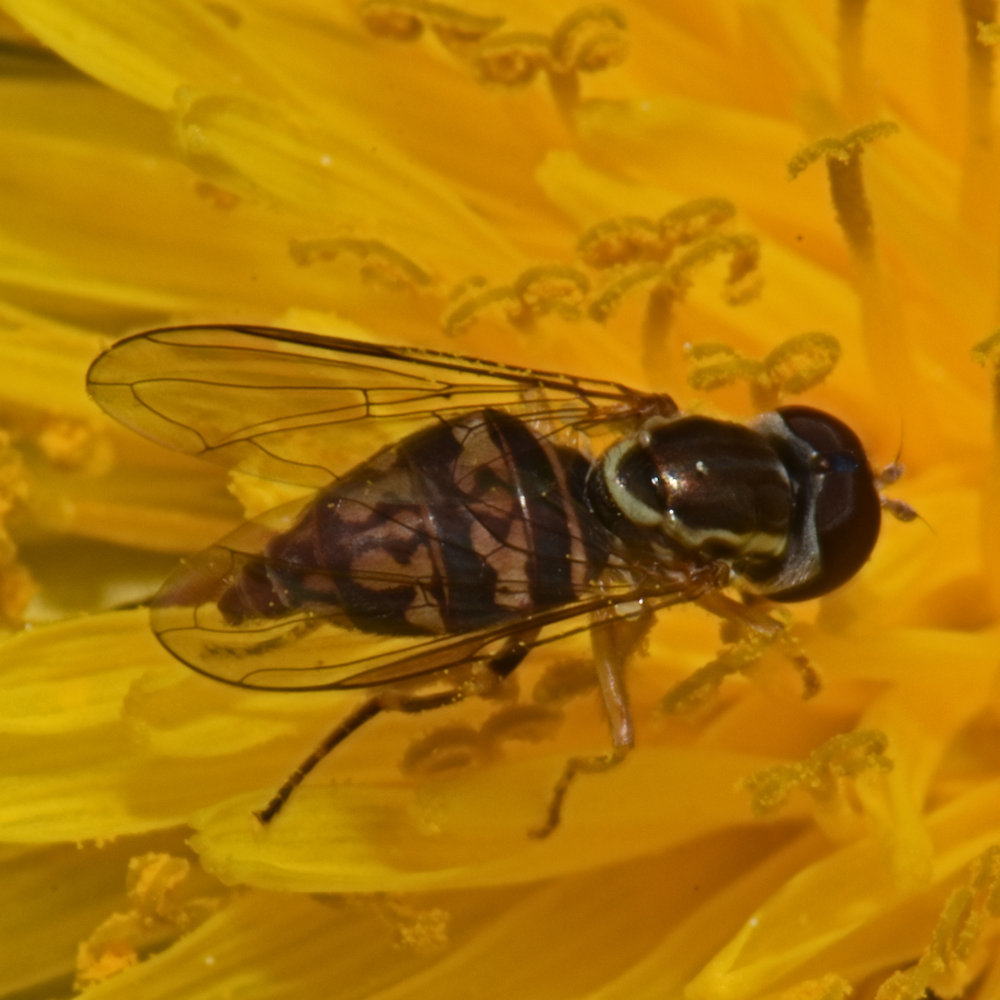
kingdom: Animalia
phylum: Arthropoda
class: Insecta
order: Diptera
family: Syrphidae
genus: Toxomerus
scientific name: Toxomerus geminatus
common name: Eastern calligrapher
